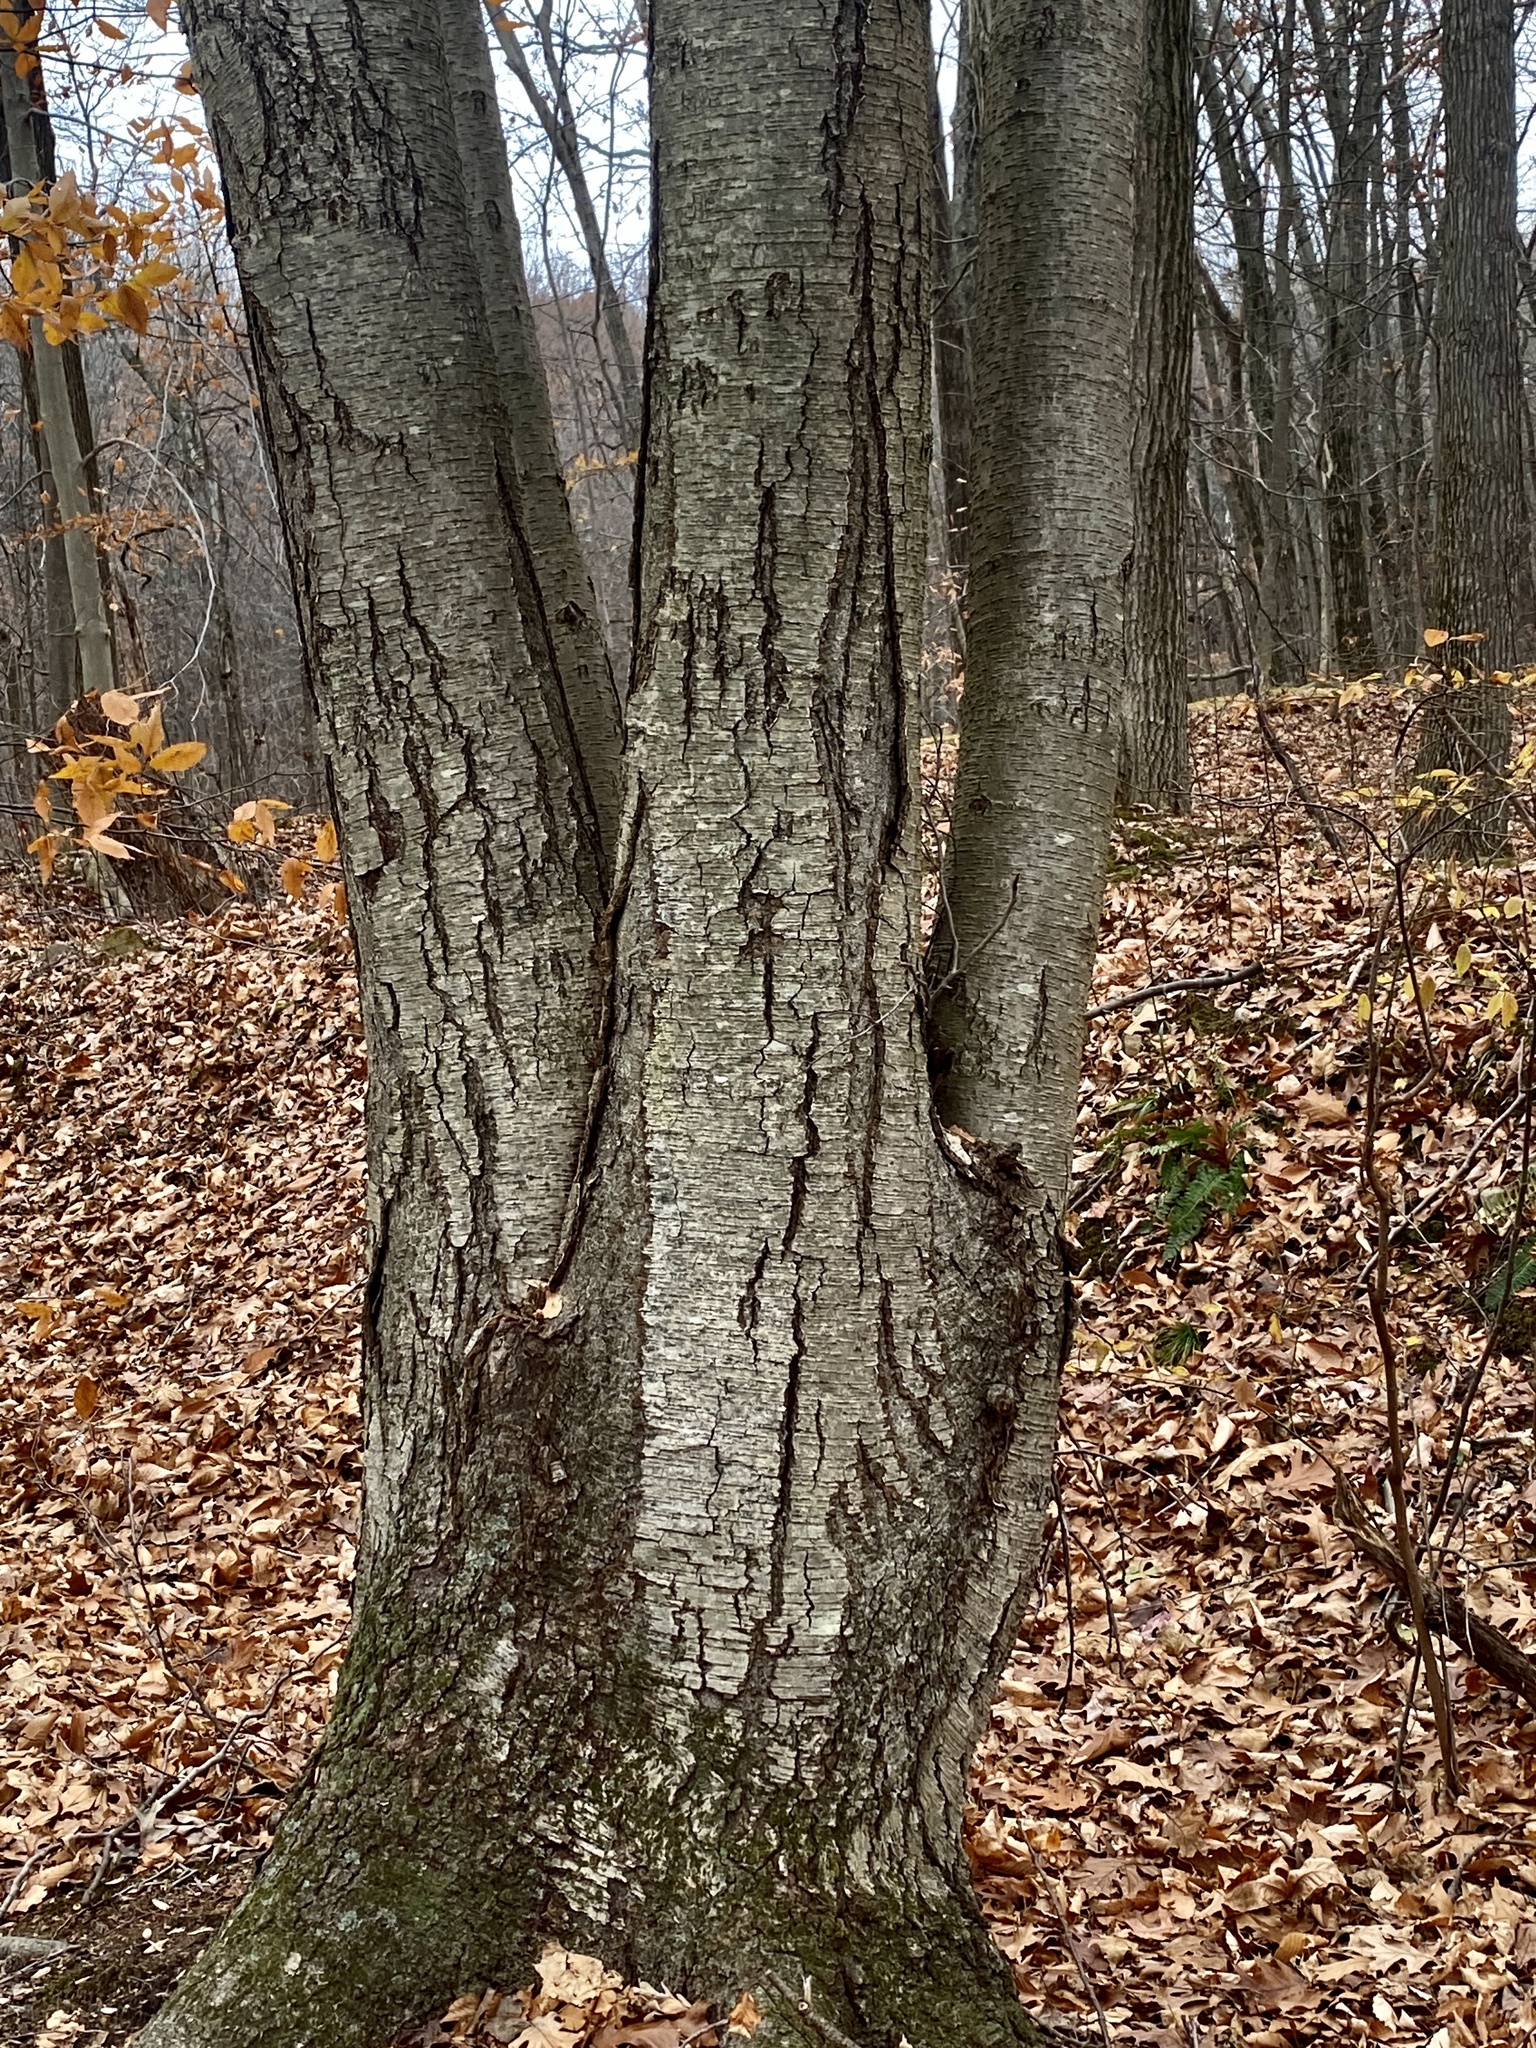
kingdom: Plantae
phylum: Tracheophyta
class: Magnoliopsida
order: Fagales
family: Betulaceae
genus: Betula
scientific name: Betula lenta
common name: Black birch
